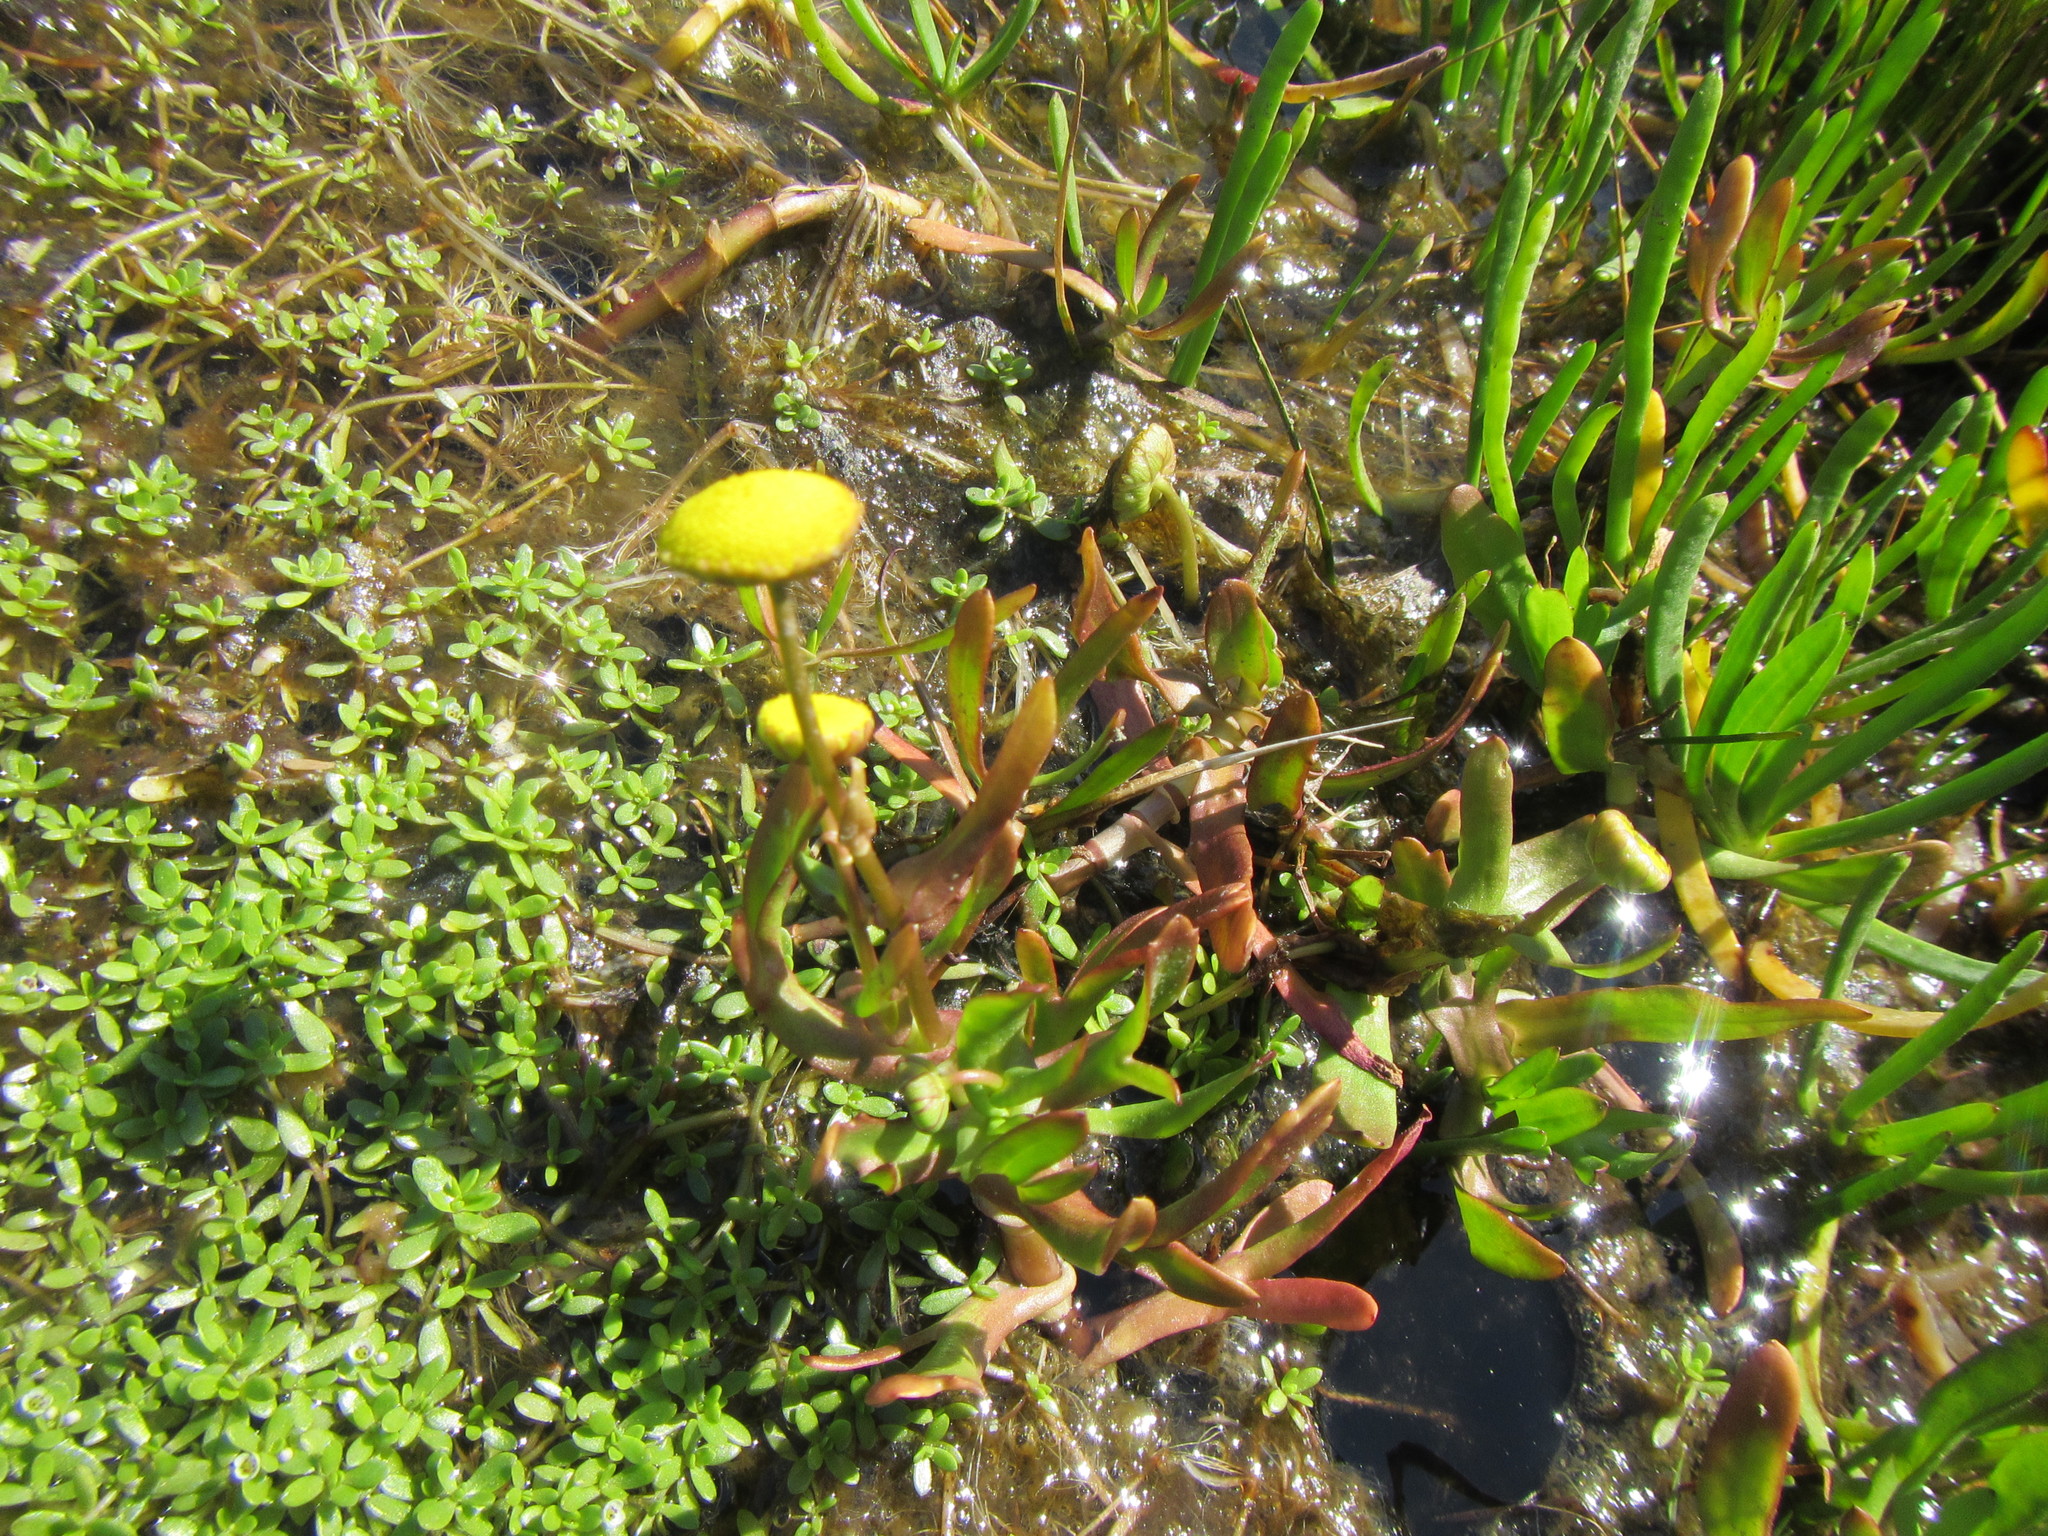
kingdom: Plantae
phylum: Tracheophyta
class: Magnoliopsida
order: Asterales
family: Asteraceae
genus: Cotula
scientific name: Cotula coronopifolia
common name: Buttonweed
